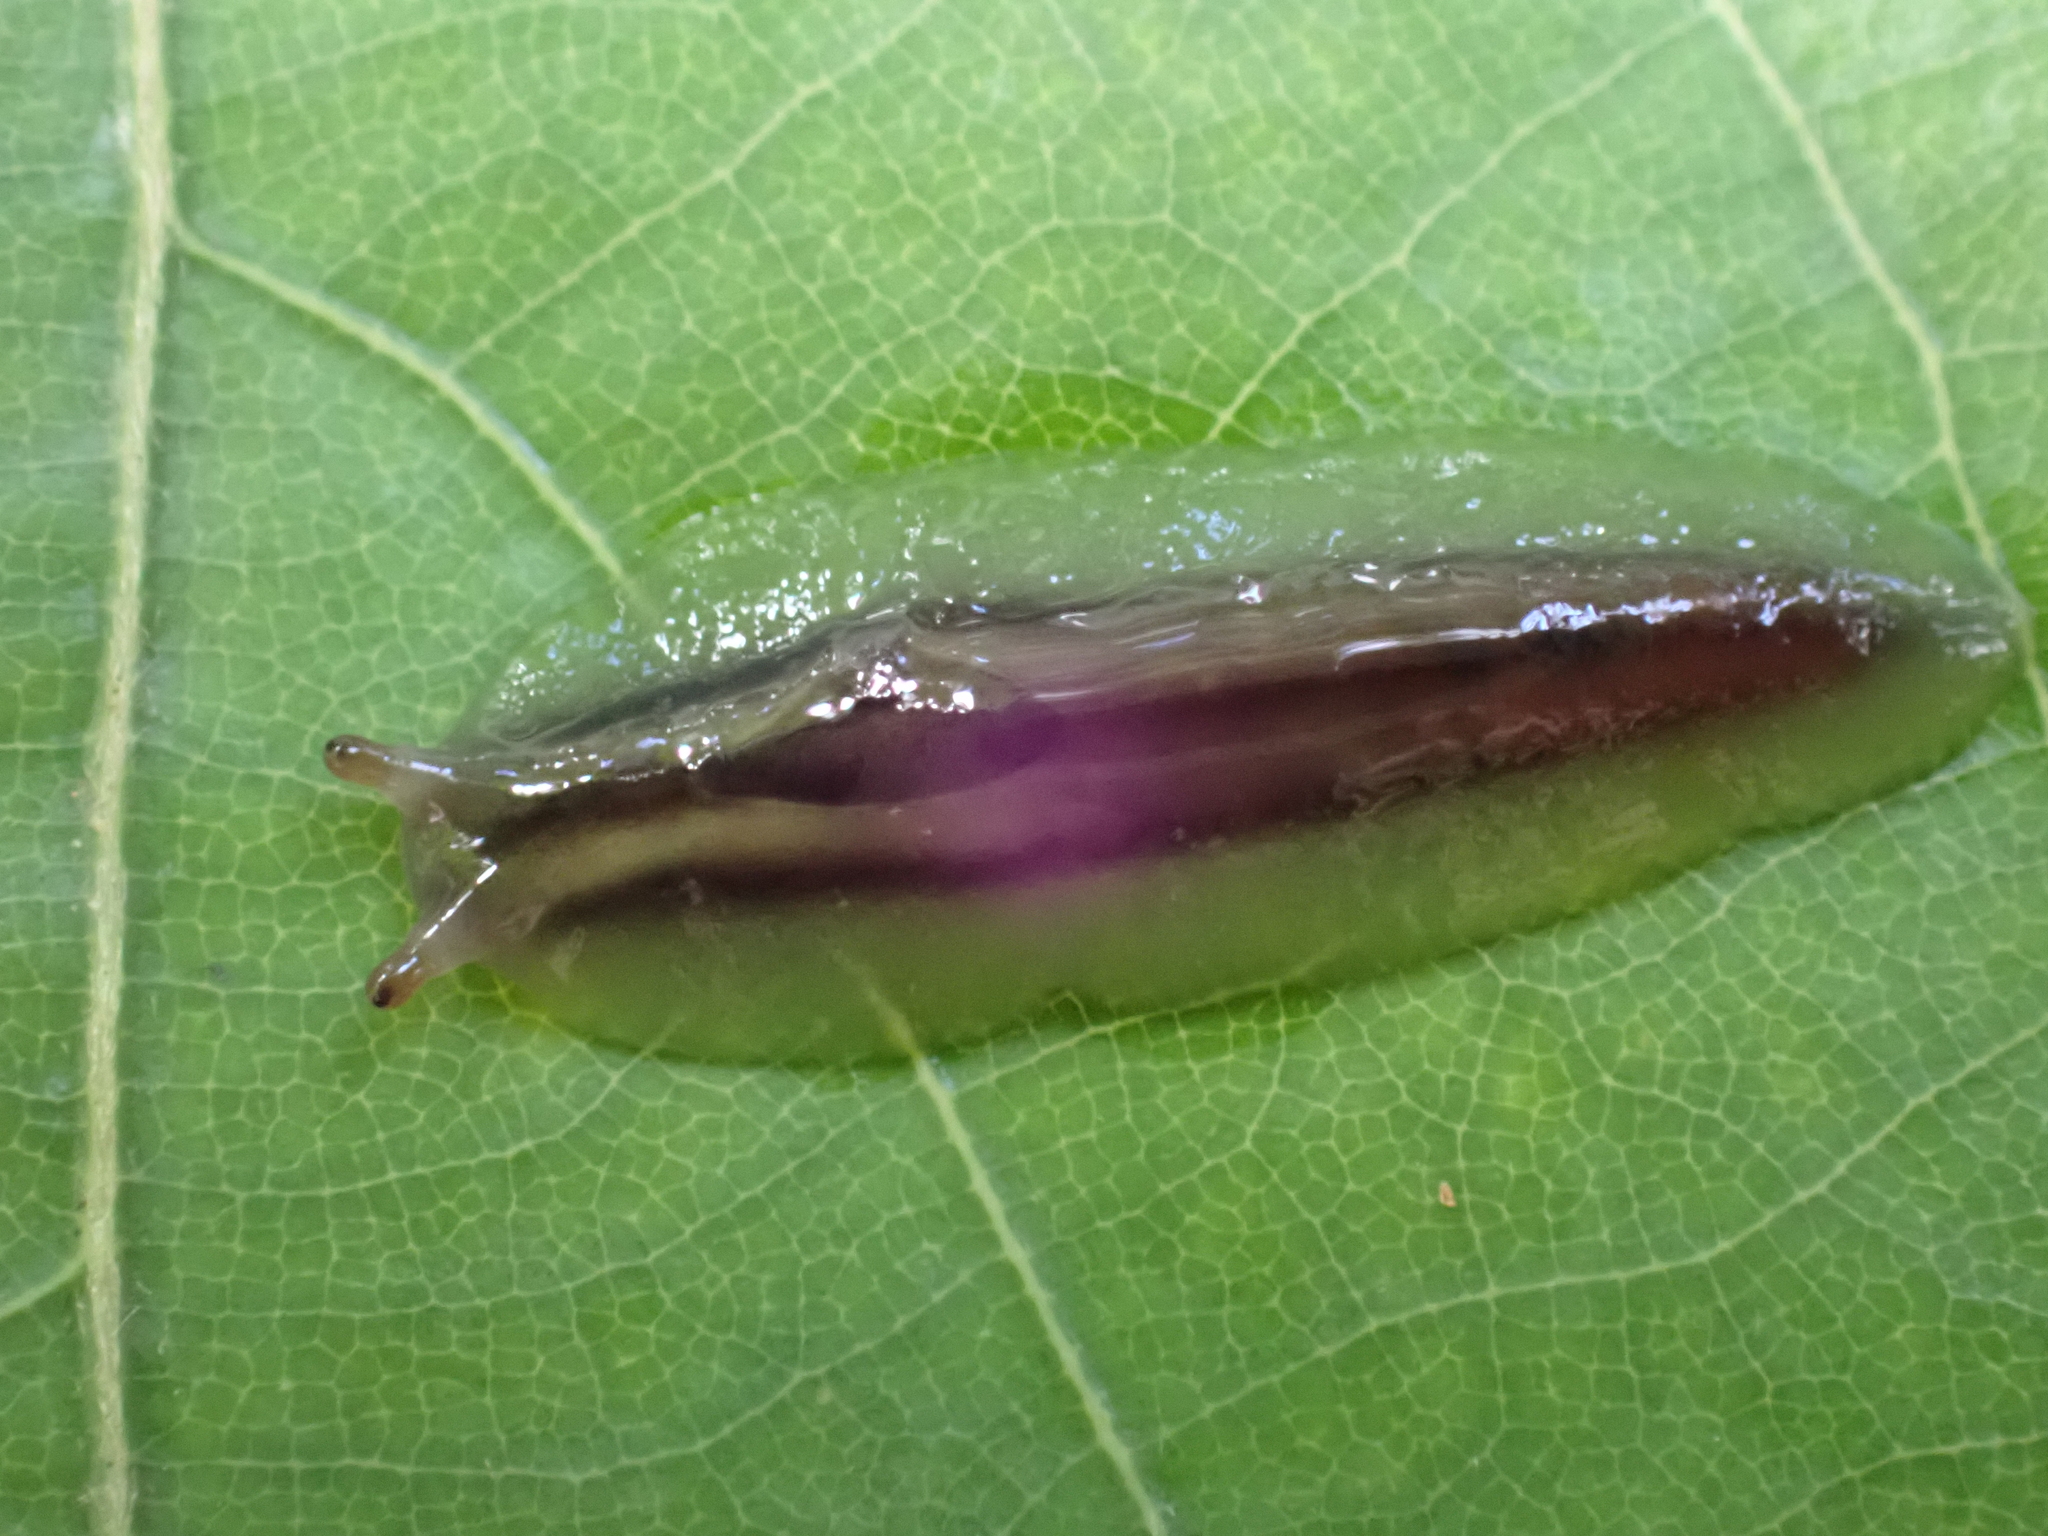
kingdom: Animalia
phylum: Mollusca
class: Gastropoda
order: Stylommatophora
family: Athoracophoridae
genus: Triboniophorus
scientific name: Triboniophorus graeffei
